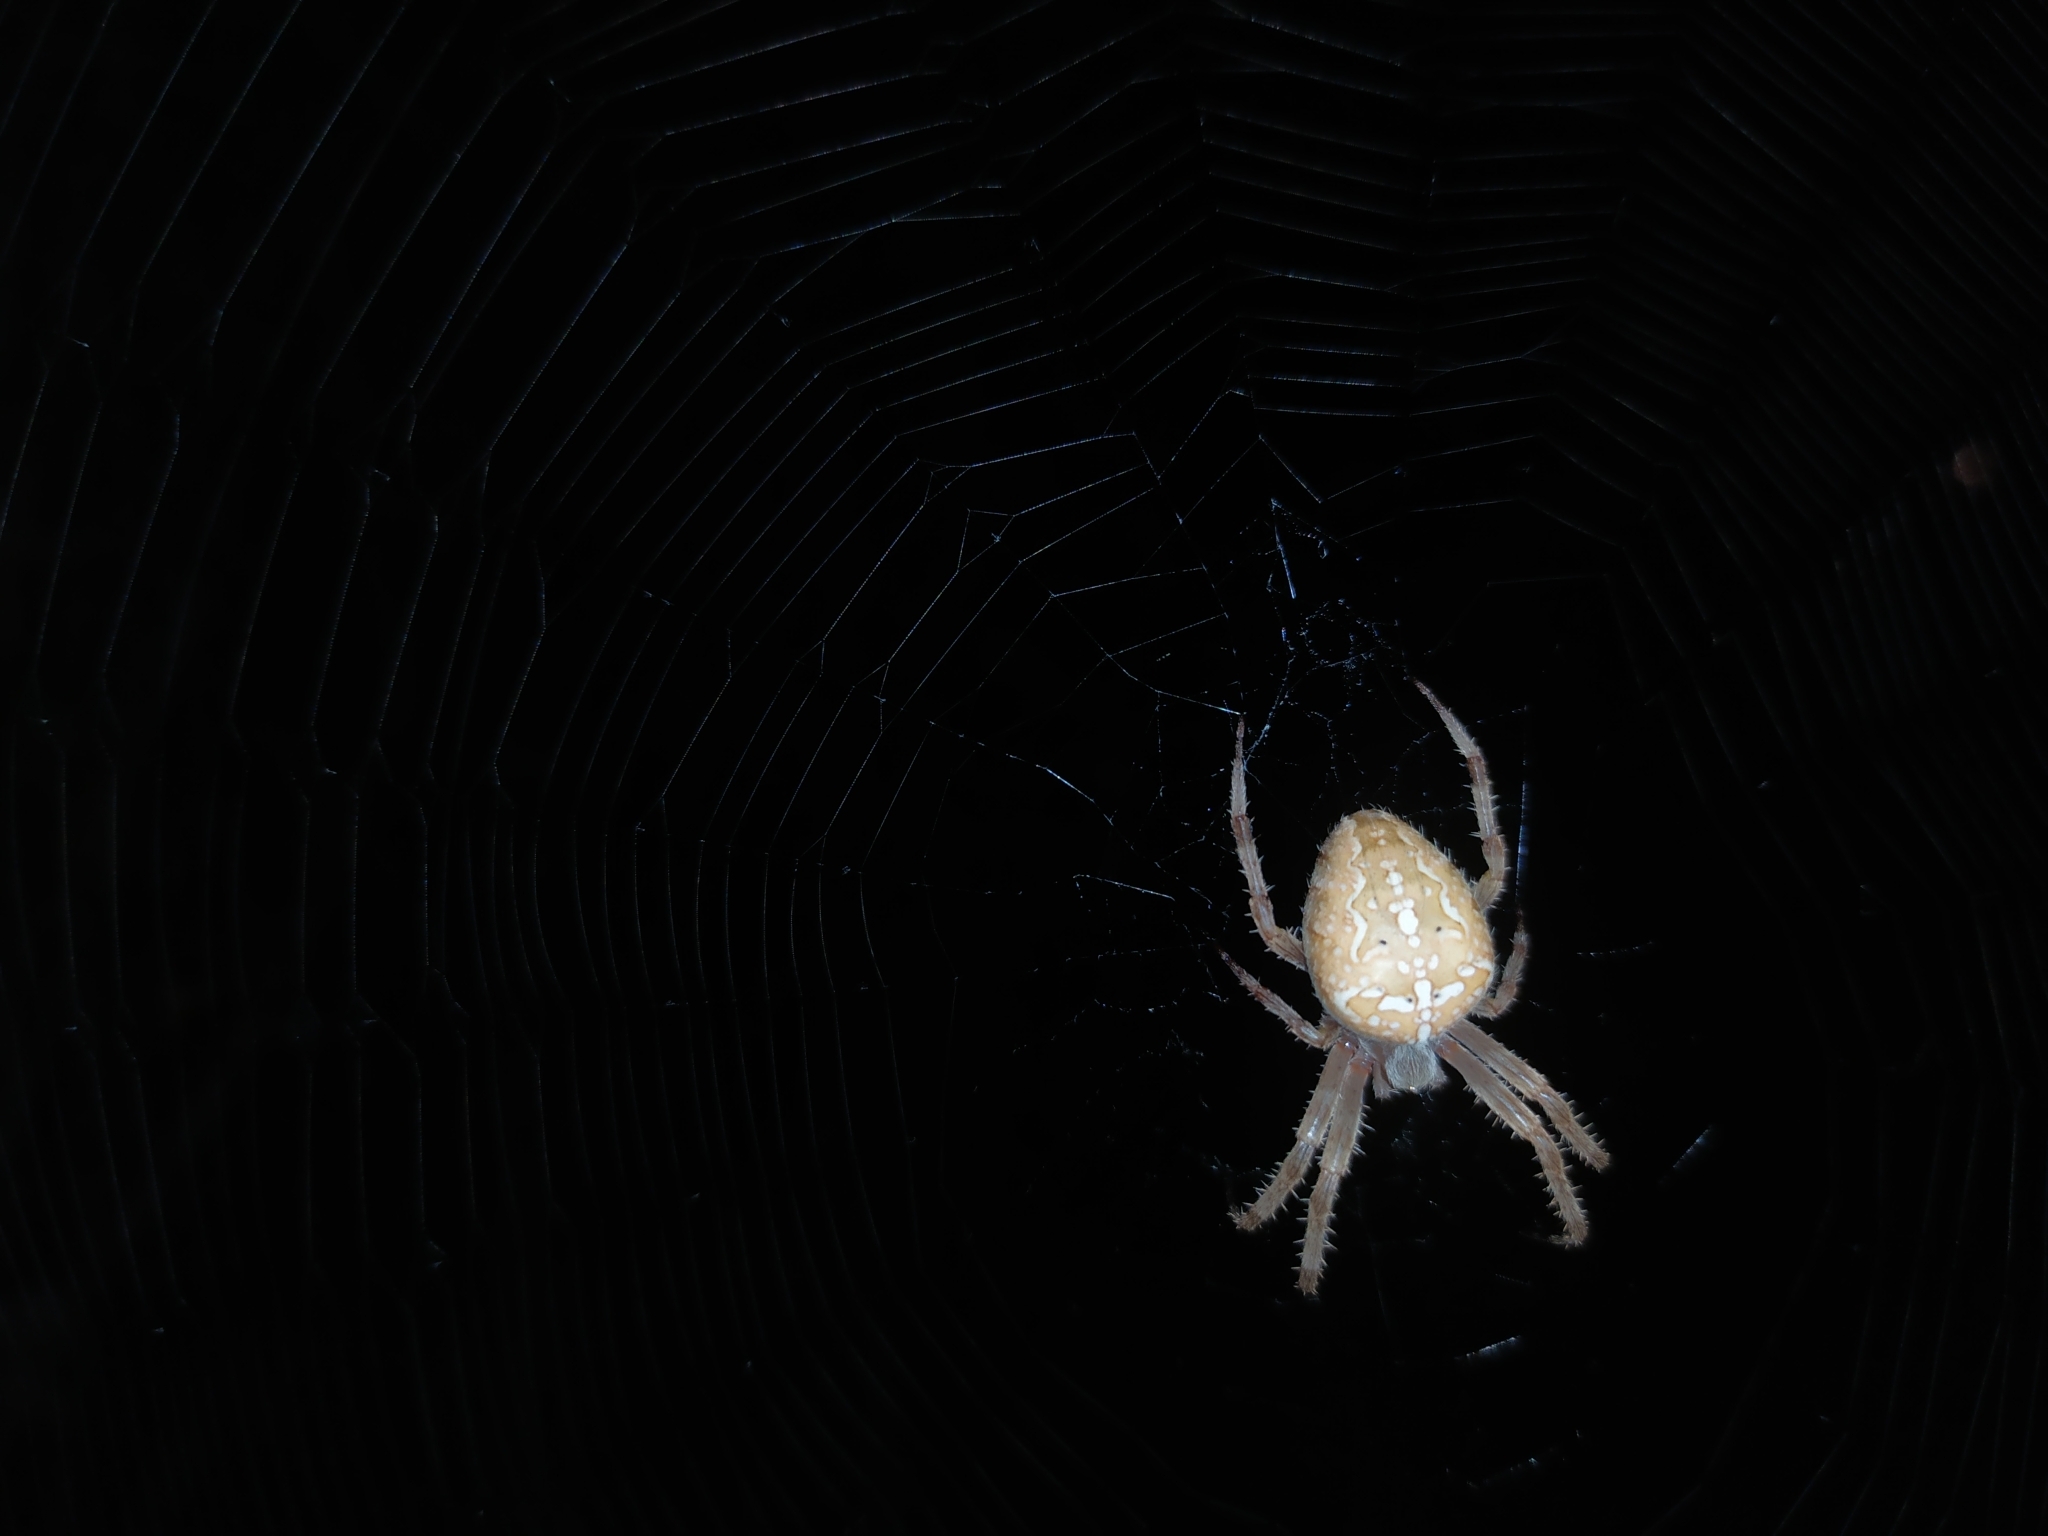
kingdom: Animalia
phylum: Arthropoda
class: Arachnida
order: Araneae
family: Araneidae
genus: Araneus
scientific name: Araneus diadematus
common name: Cross orbweaver
